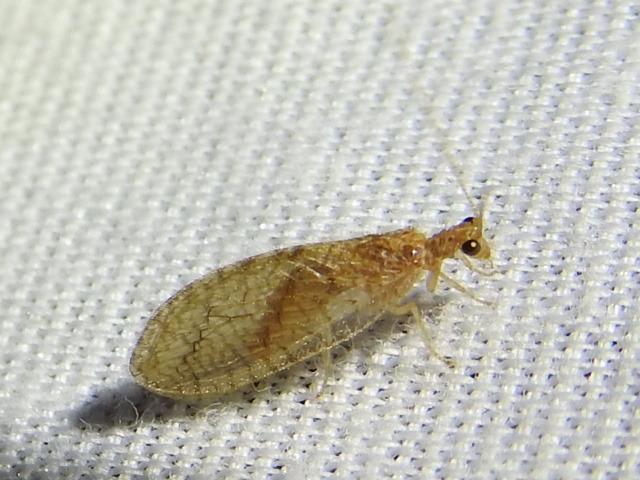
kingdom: Animalia
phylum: Arthropoda
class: Insecta
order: Neuroptera
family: Hemerobiidae
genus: Micromus
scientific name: Micromus posticus
